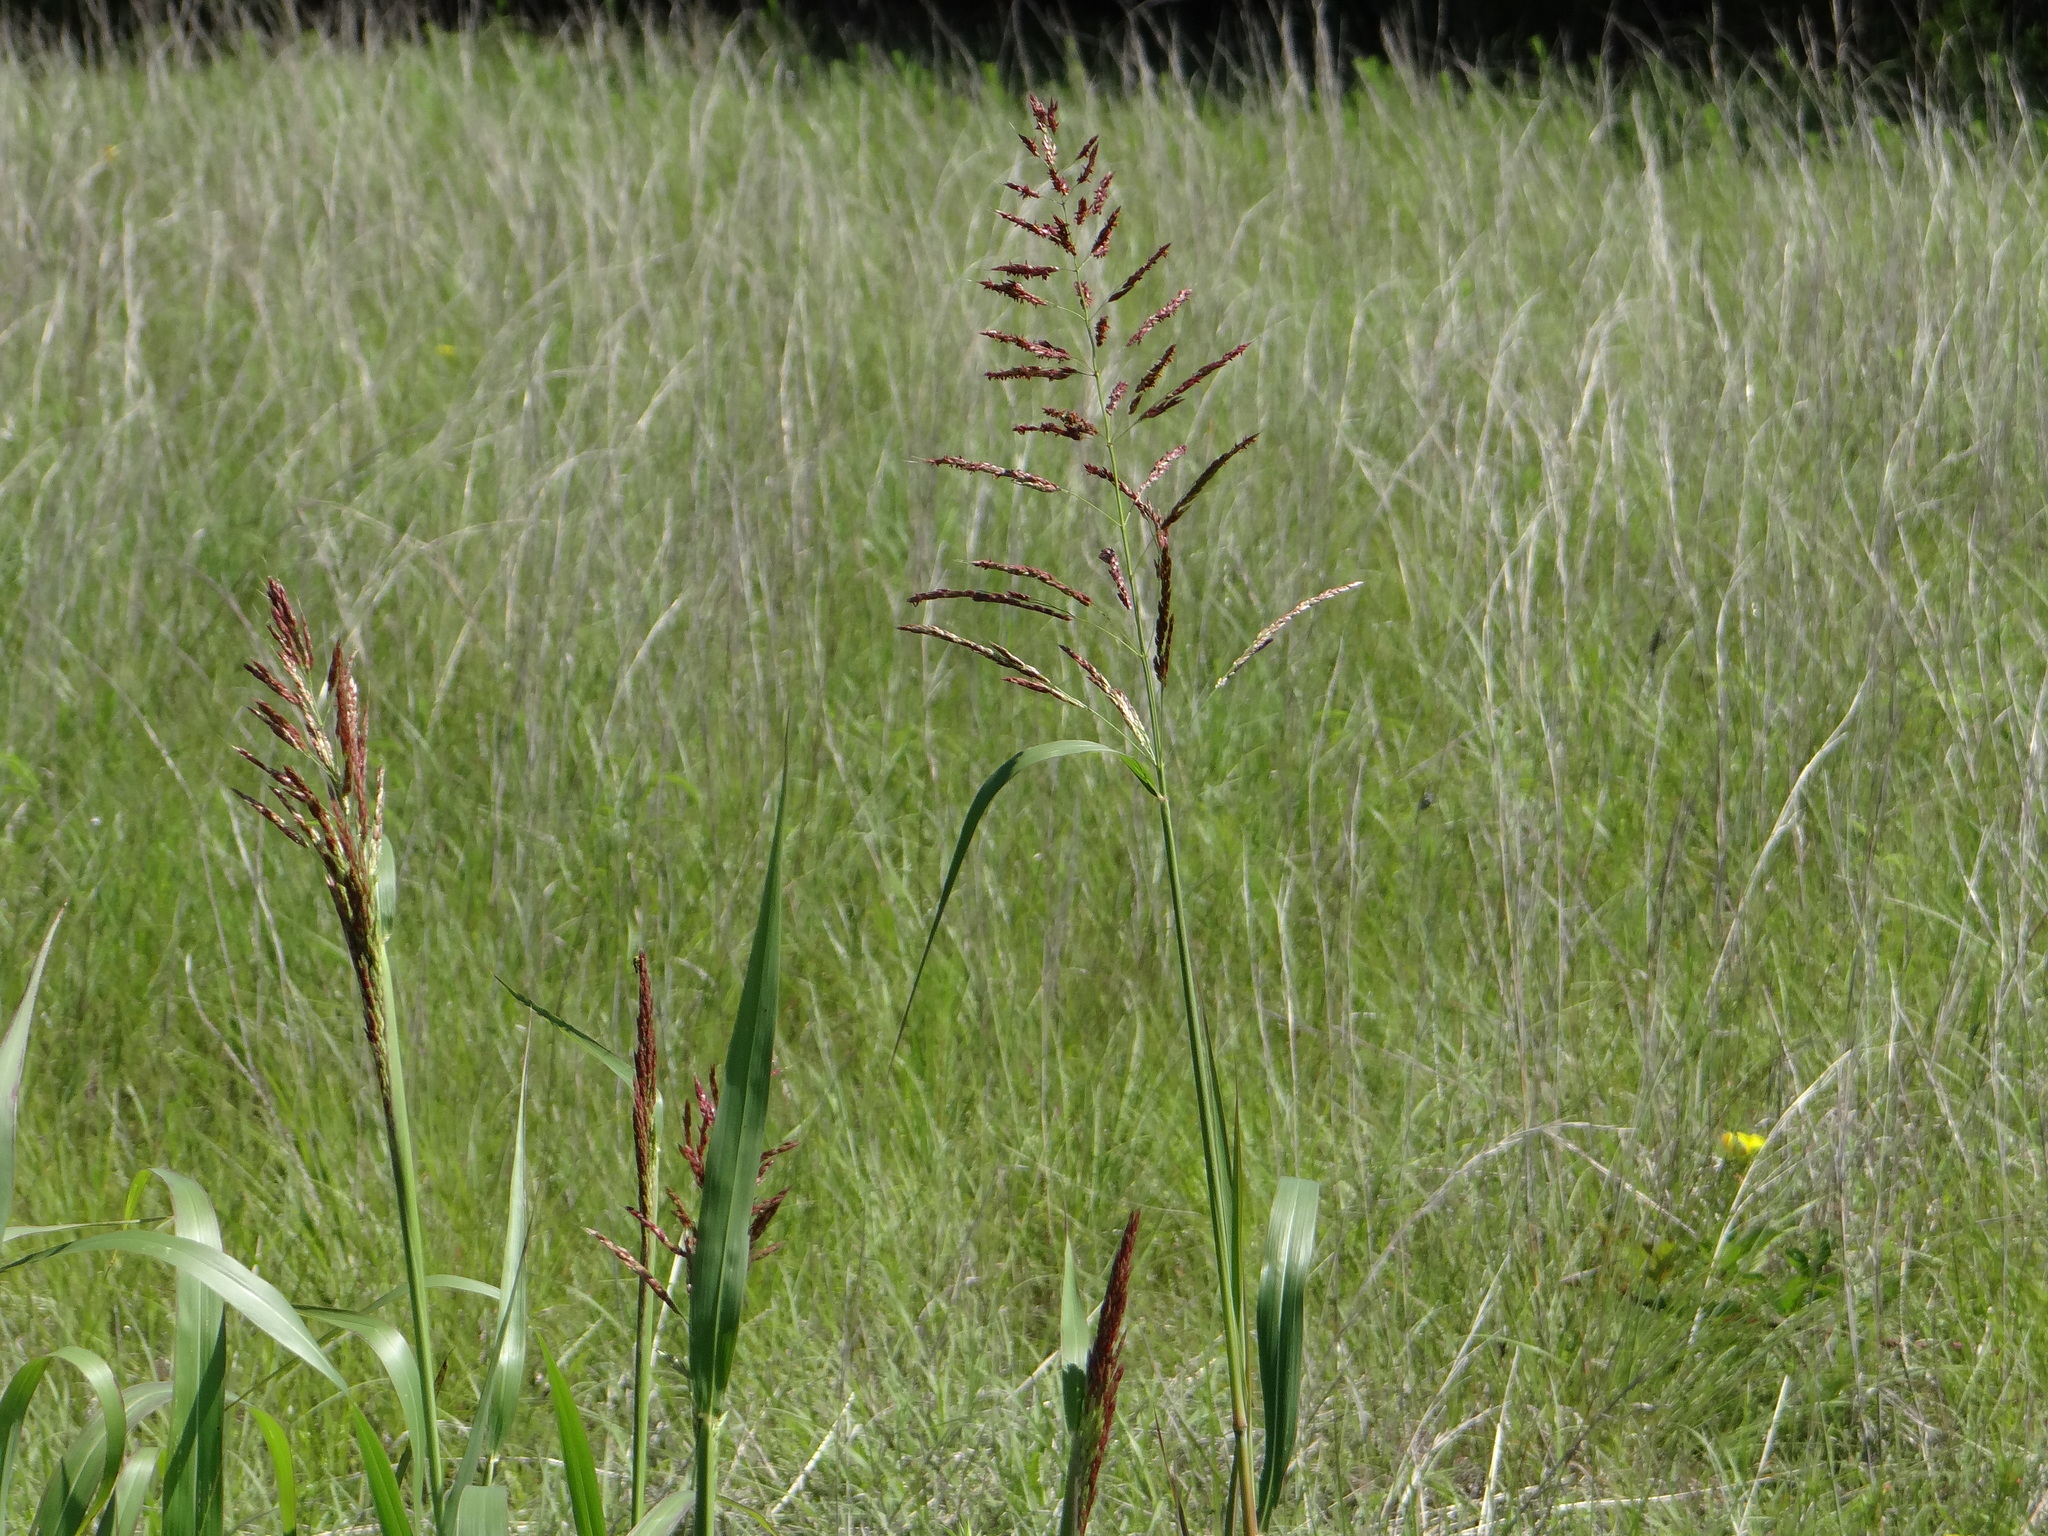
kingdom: Plantae
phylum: Tracheophyta
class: Liliopsida
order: Poales
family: Poaceae
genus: Sorghum
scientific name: Sorghum halepense
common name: Johnson-grass
